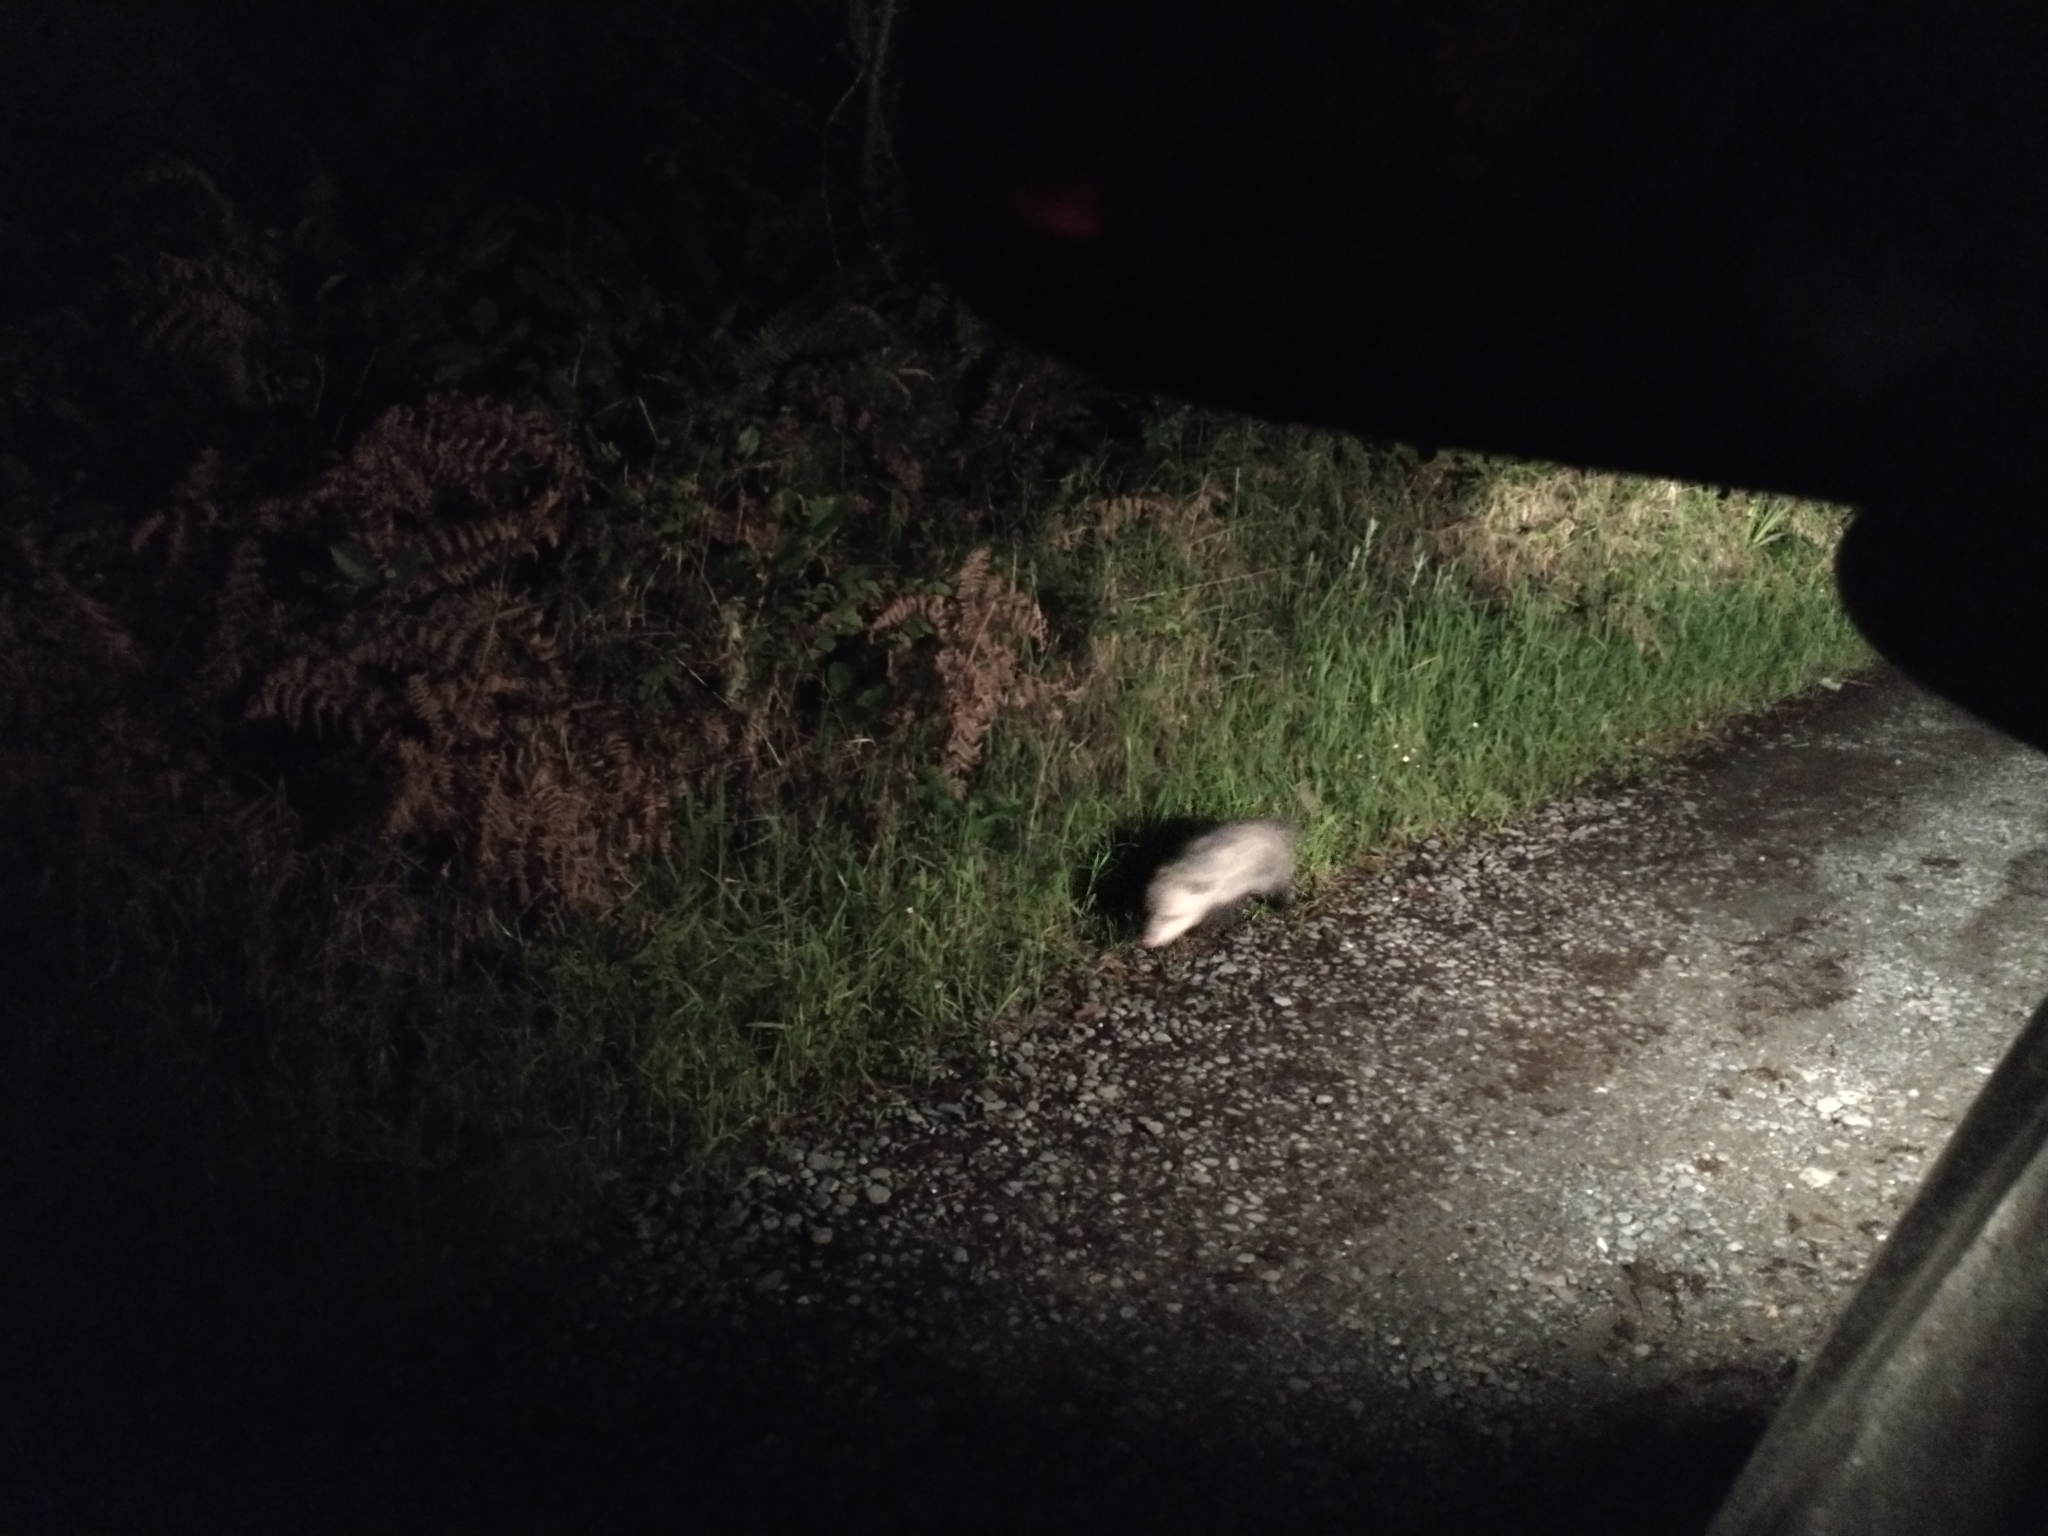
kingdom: Animalia
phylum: Chordata
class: Mammalia
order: Didelphimorphia
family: Didelphidae
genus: Didelphis
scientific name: Didelphis virginiana
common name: Virginia opossum
